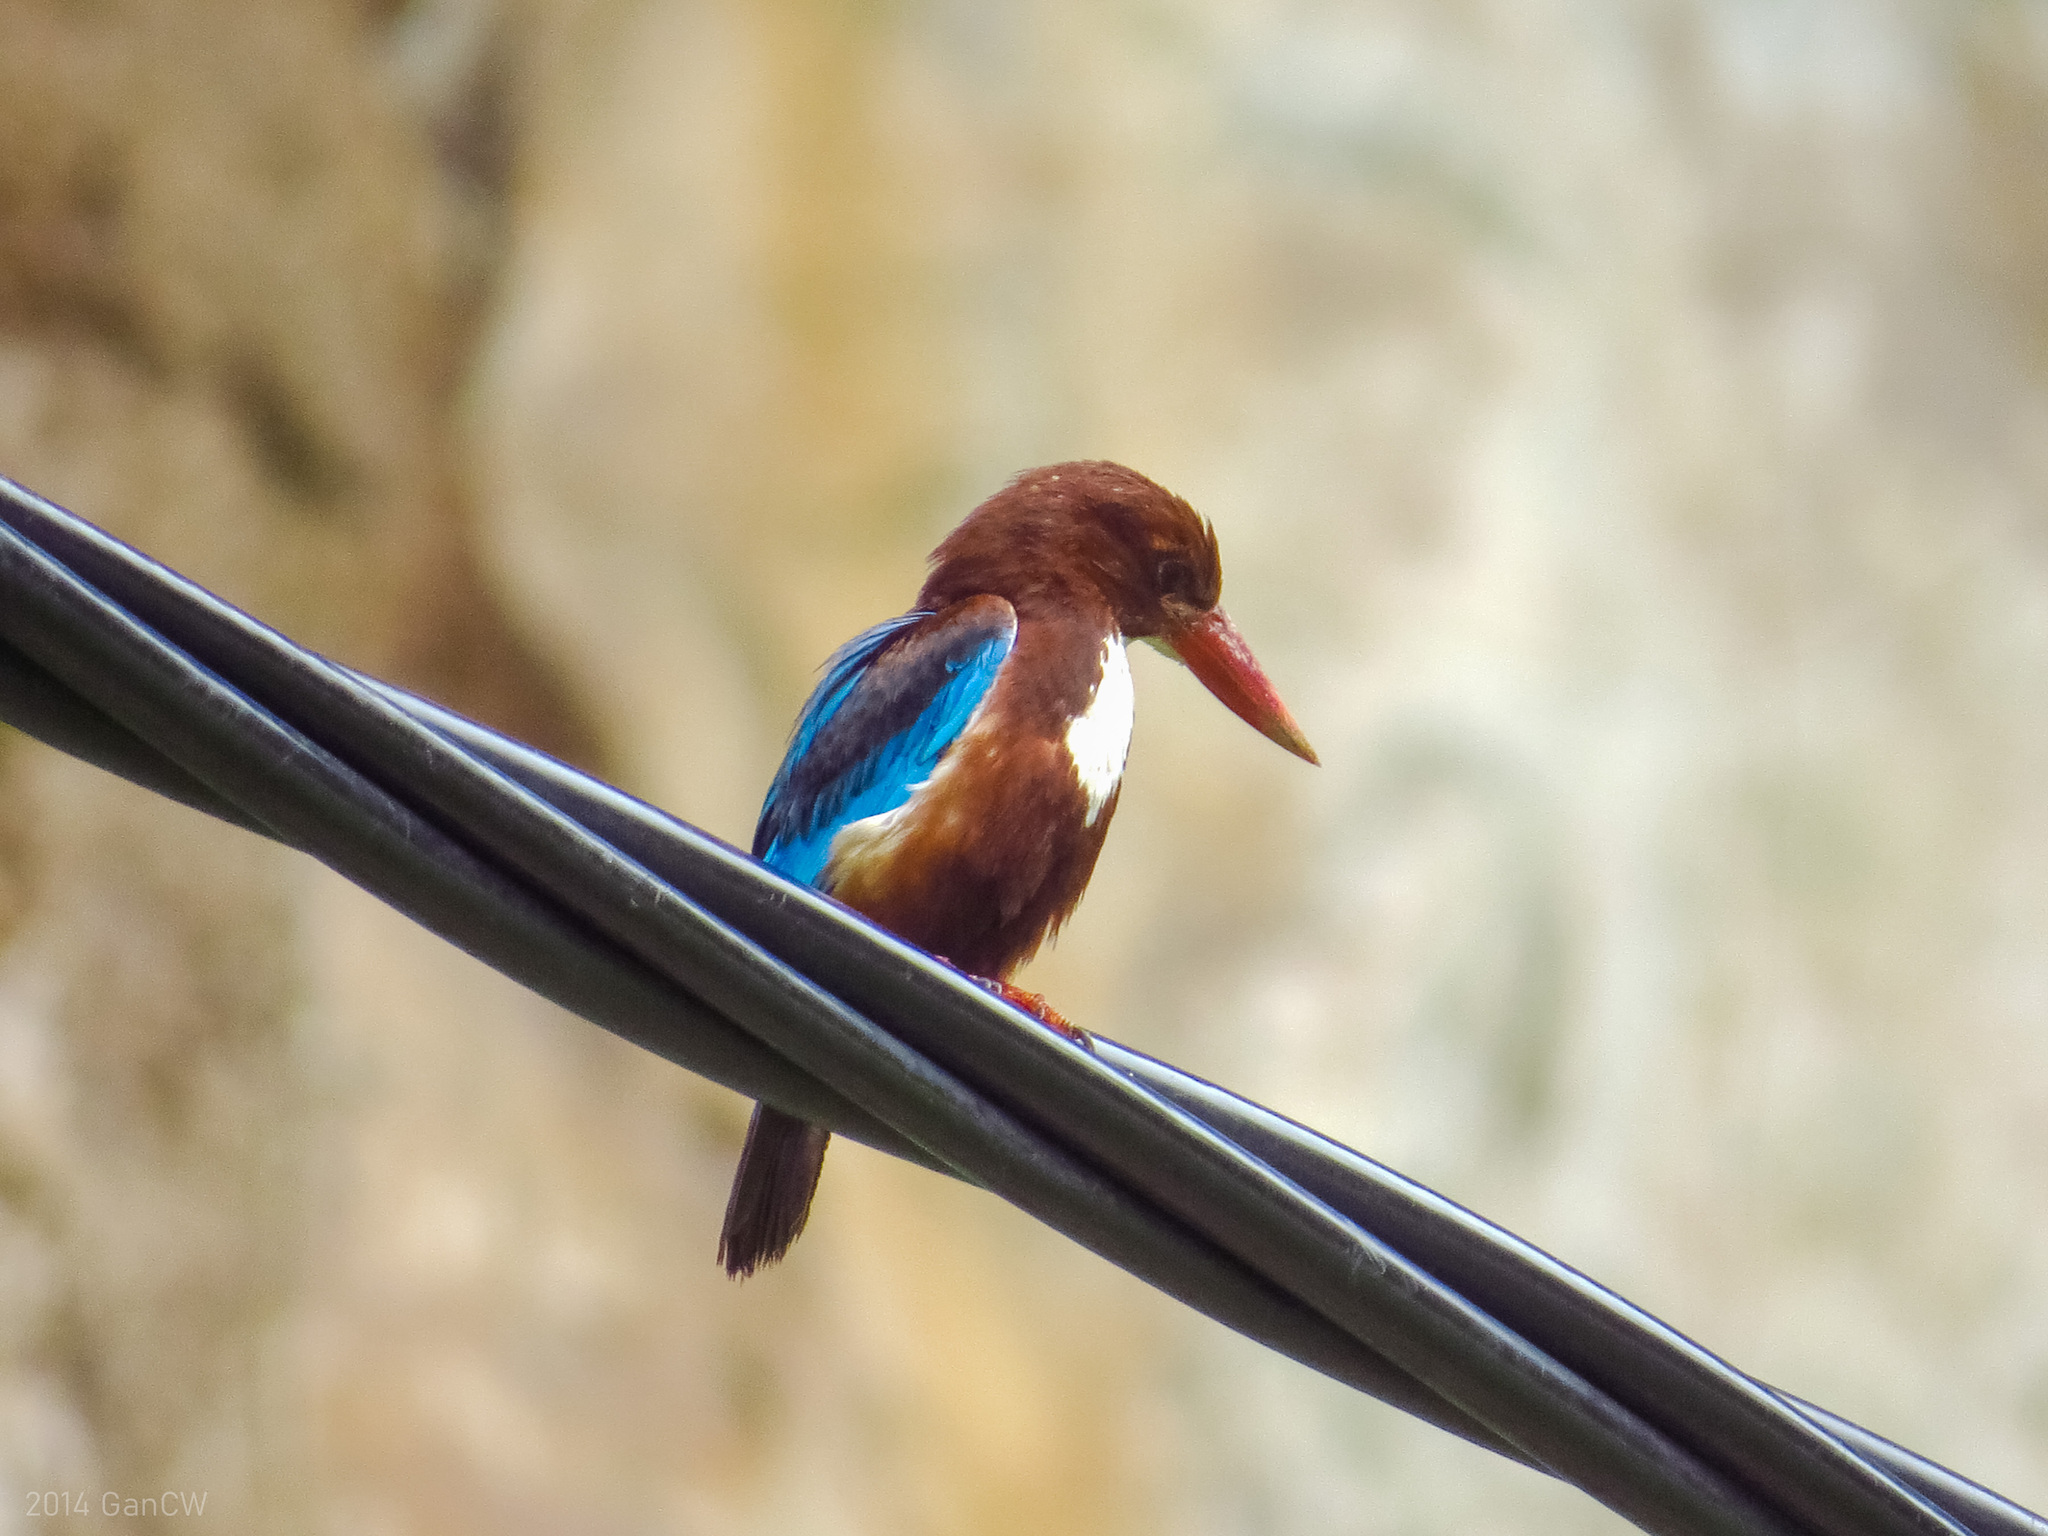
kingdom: Animalia
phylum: Chordata
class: Aves
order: Coraciiformes
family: Alcedinidae
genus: Halcyon
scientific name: Halcyon smyrnensis
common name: White-throated kingfisher
